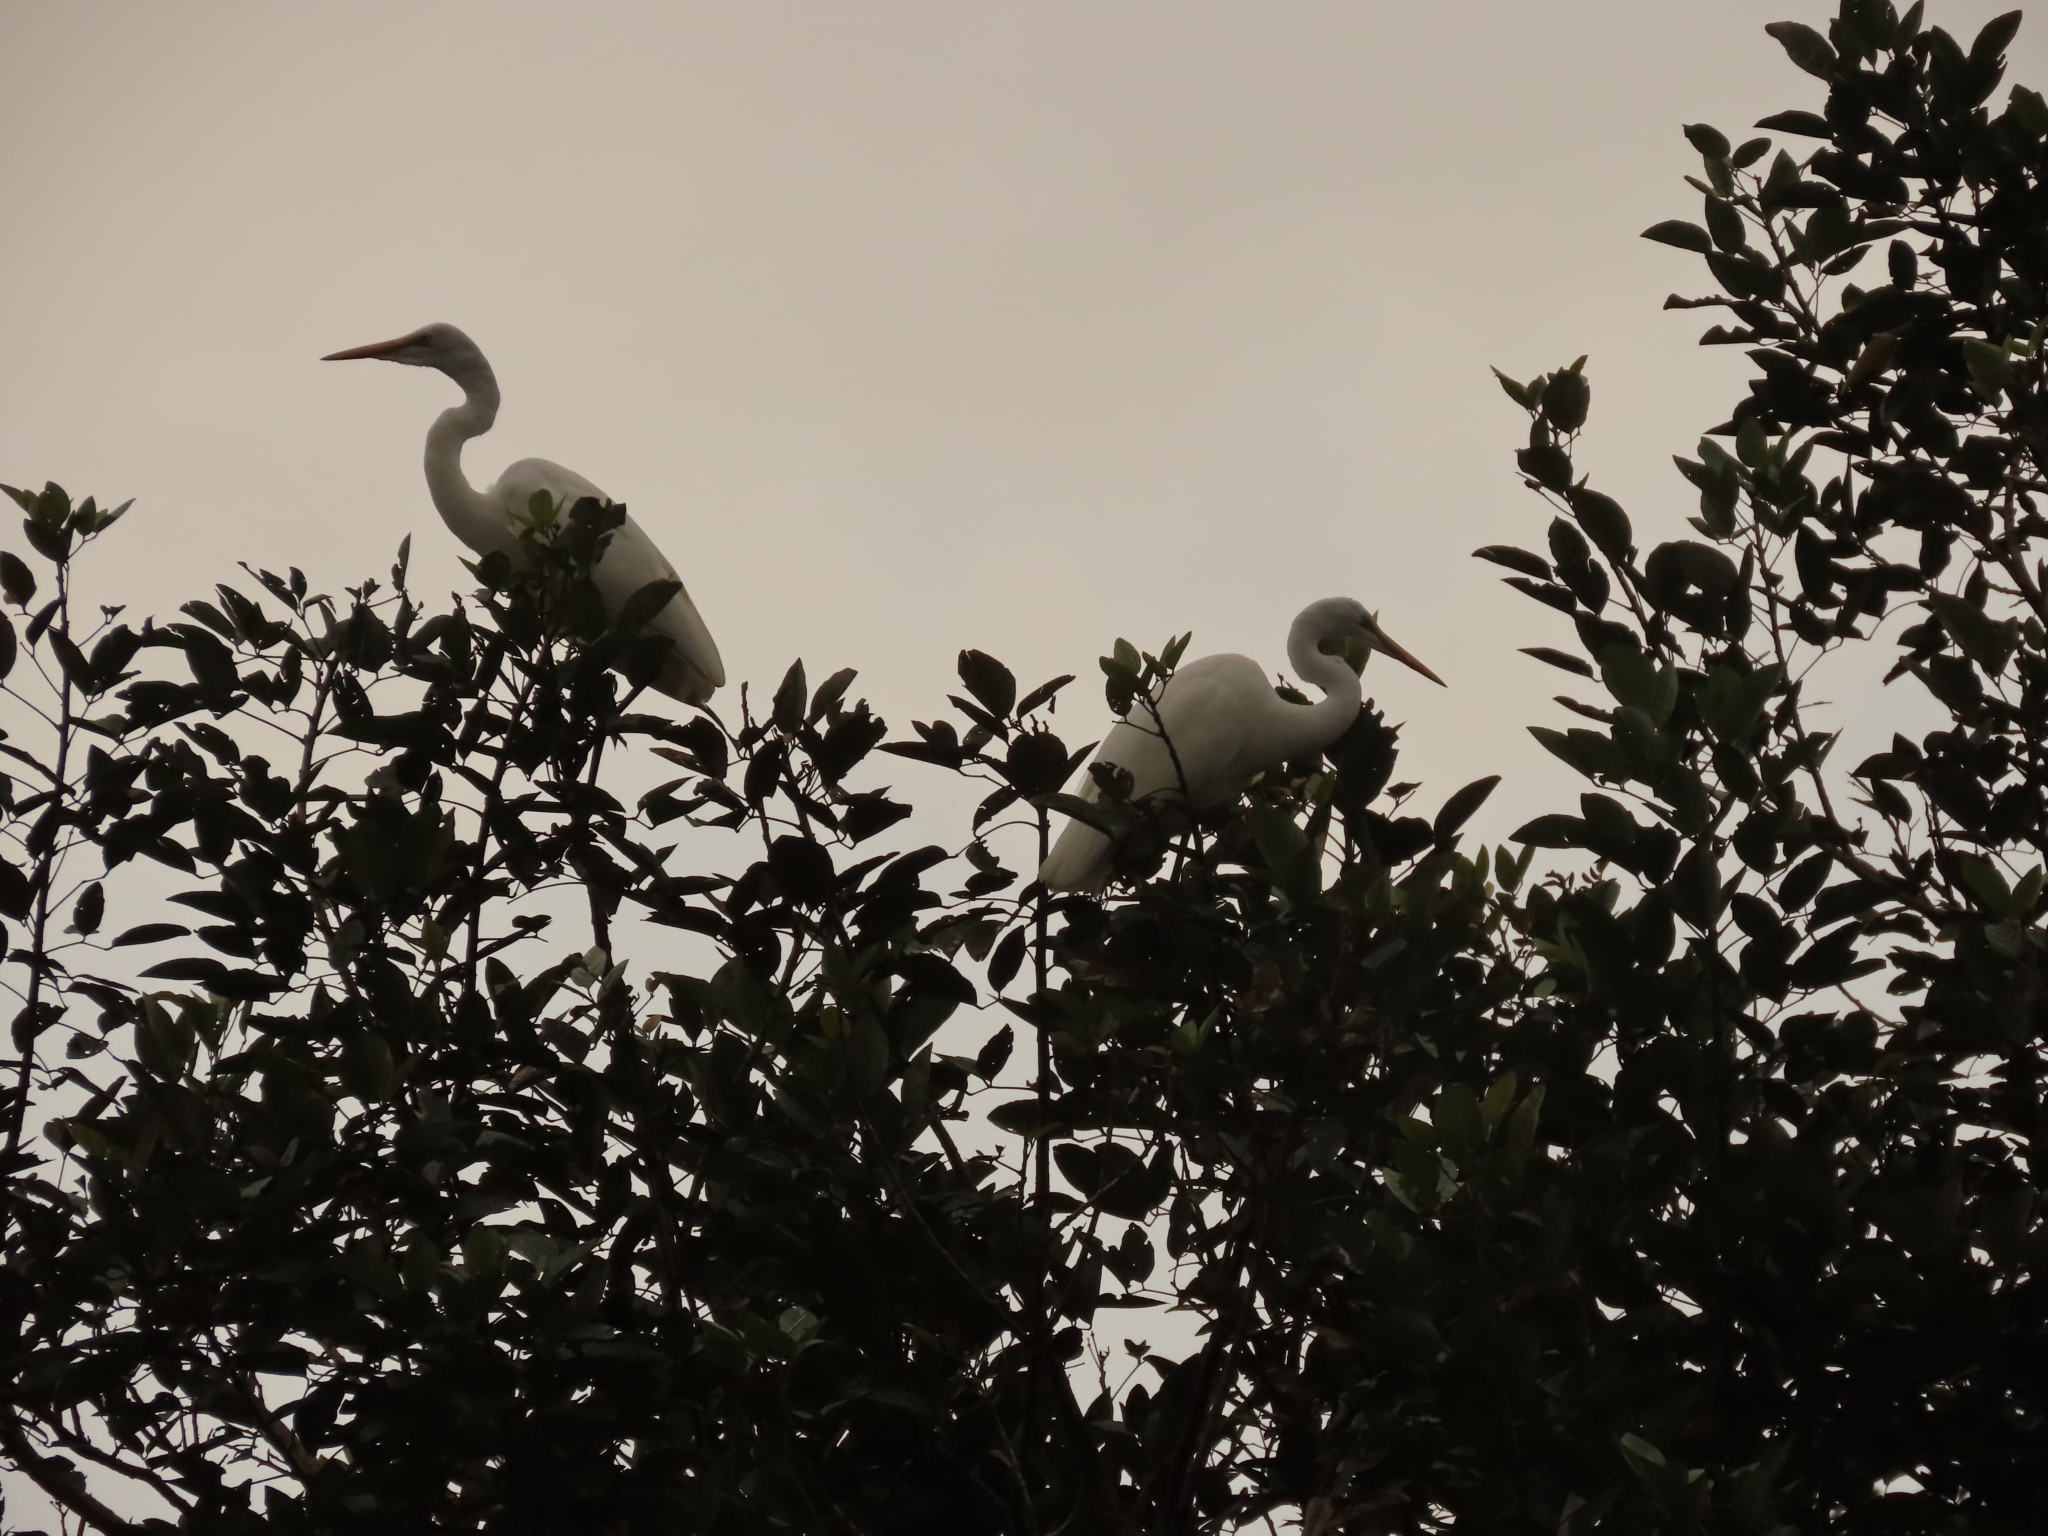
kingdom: Animalia
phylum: Chordata
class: Aves
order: Pelecaniformes
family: Ardeidae
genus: Ardea
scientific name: Ardea alba
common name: Great egret
